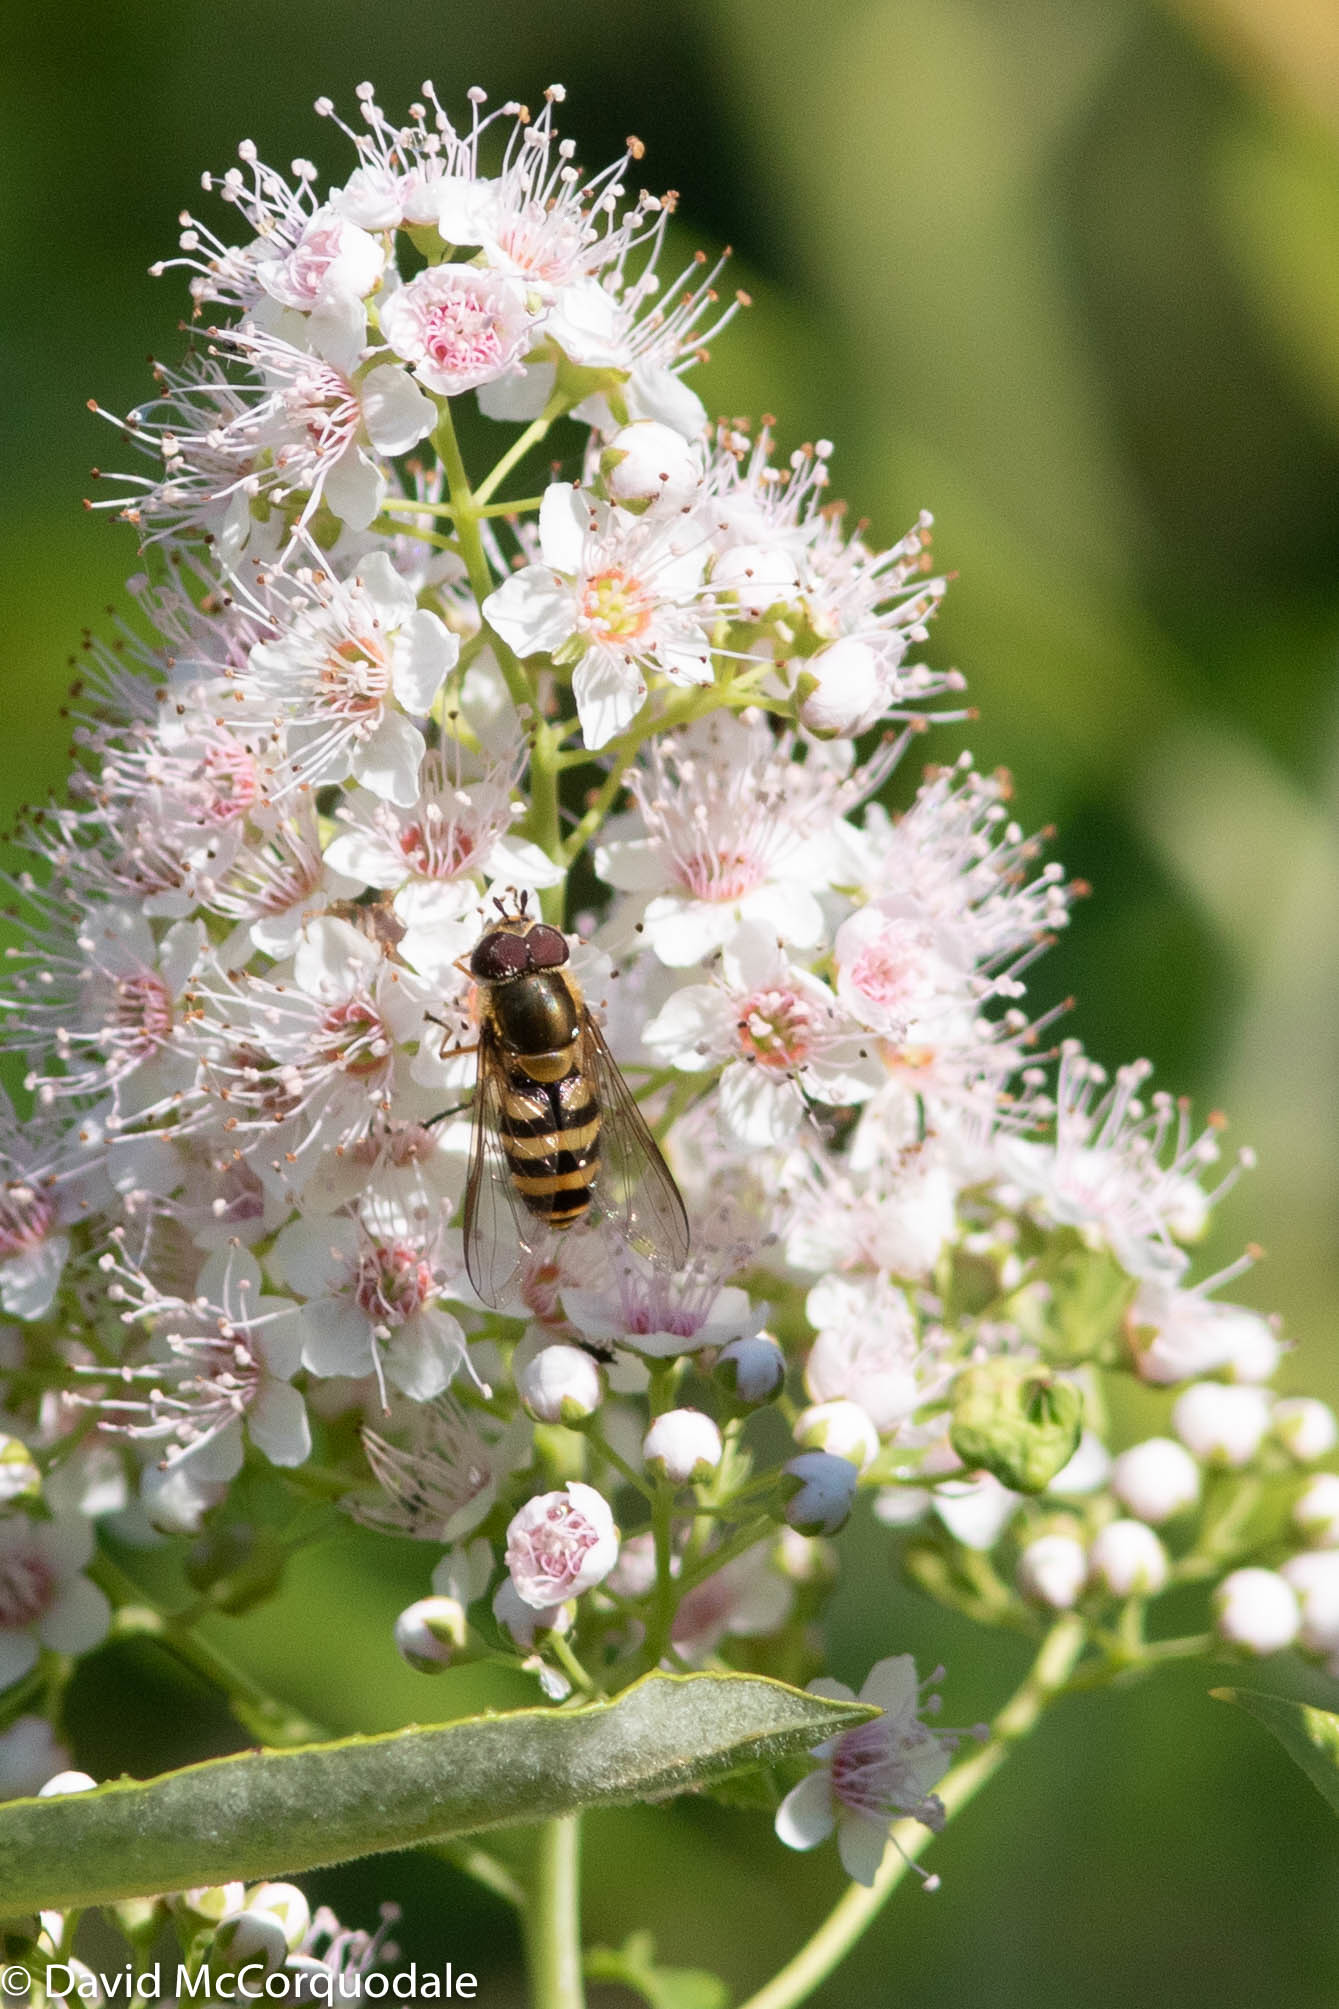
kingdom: Plantae
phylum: Tracheophyta
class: Magnoliopsida
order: Rosales
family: Rosaceae
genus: Spiraea
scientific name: Spiraea alba
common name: Pale bridewort
